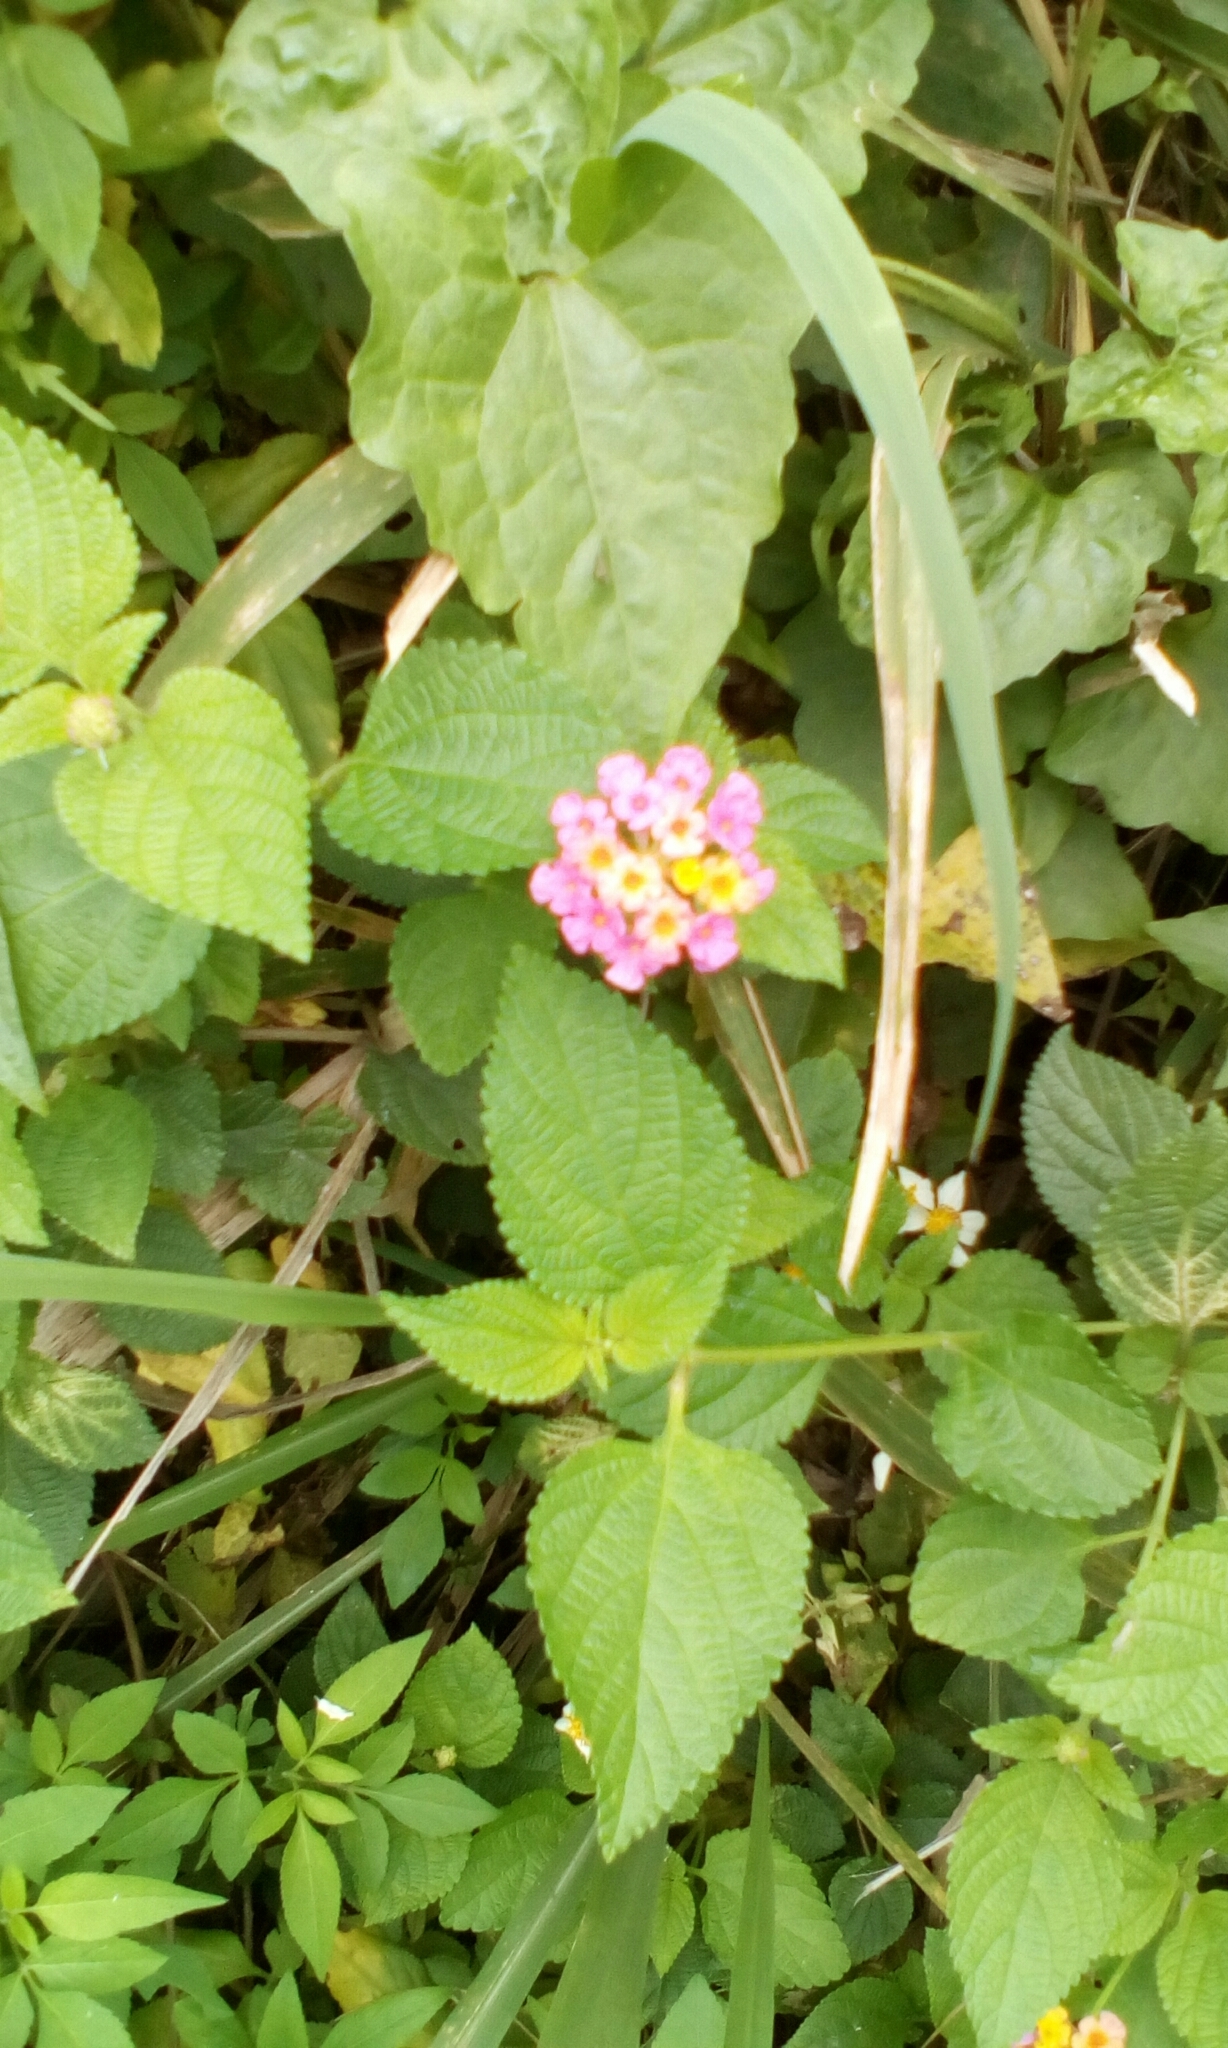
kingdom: Plantae
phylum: Tracheophyta
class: Magnoliopsida
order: Lamiales
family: Verbenaceae
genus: Lantana
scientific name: Lantana camara
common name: Lantana
